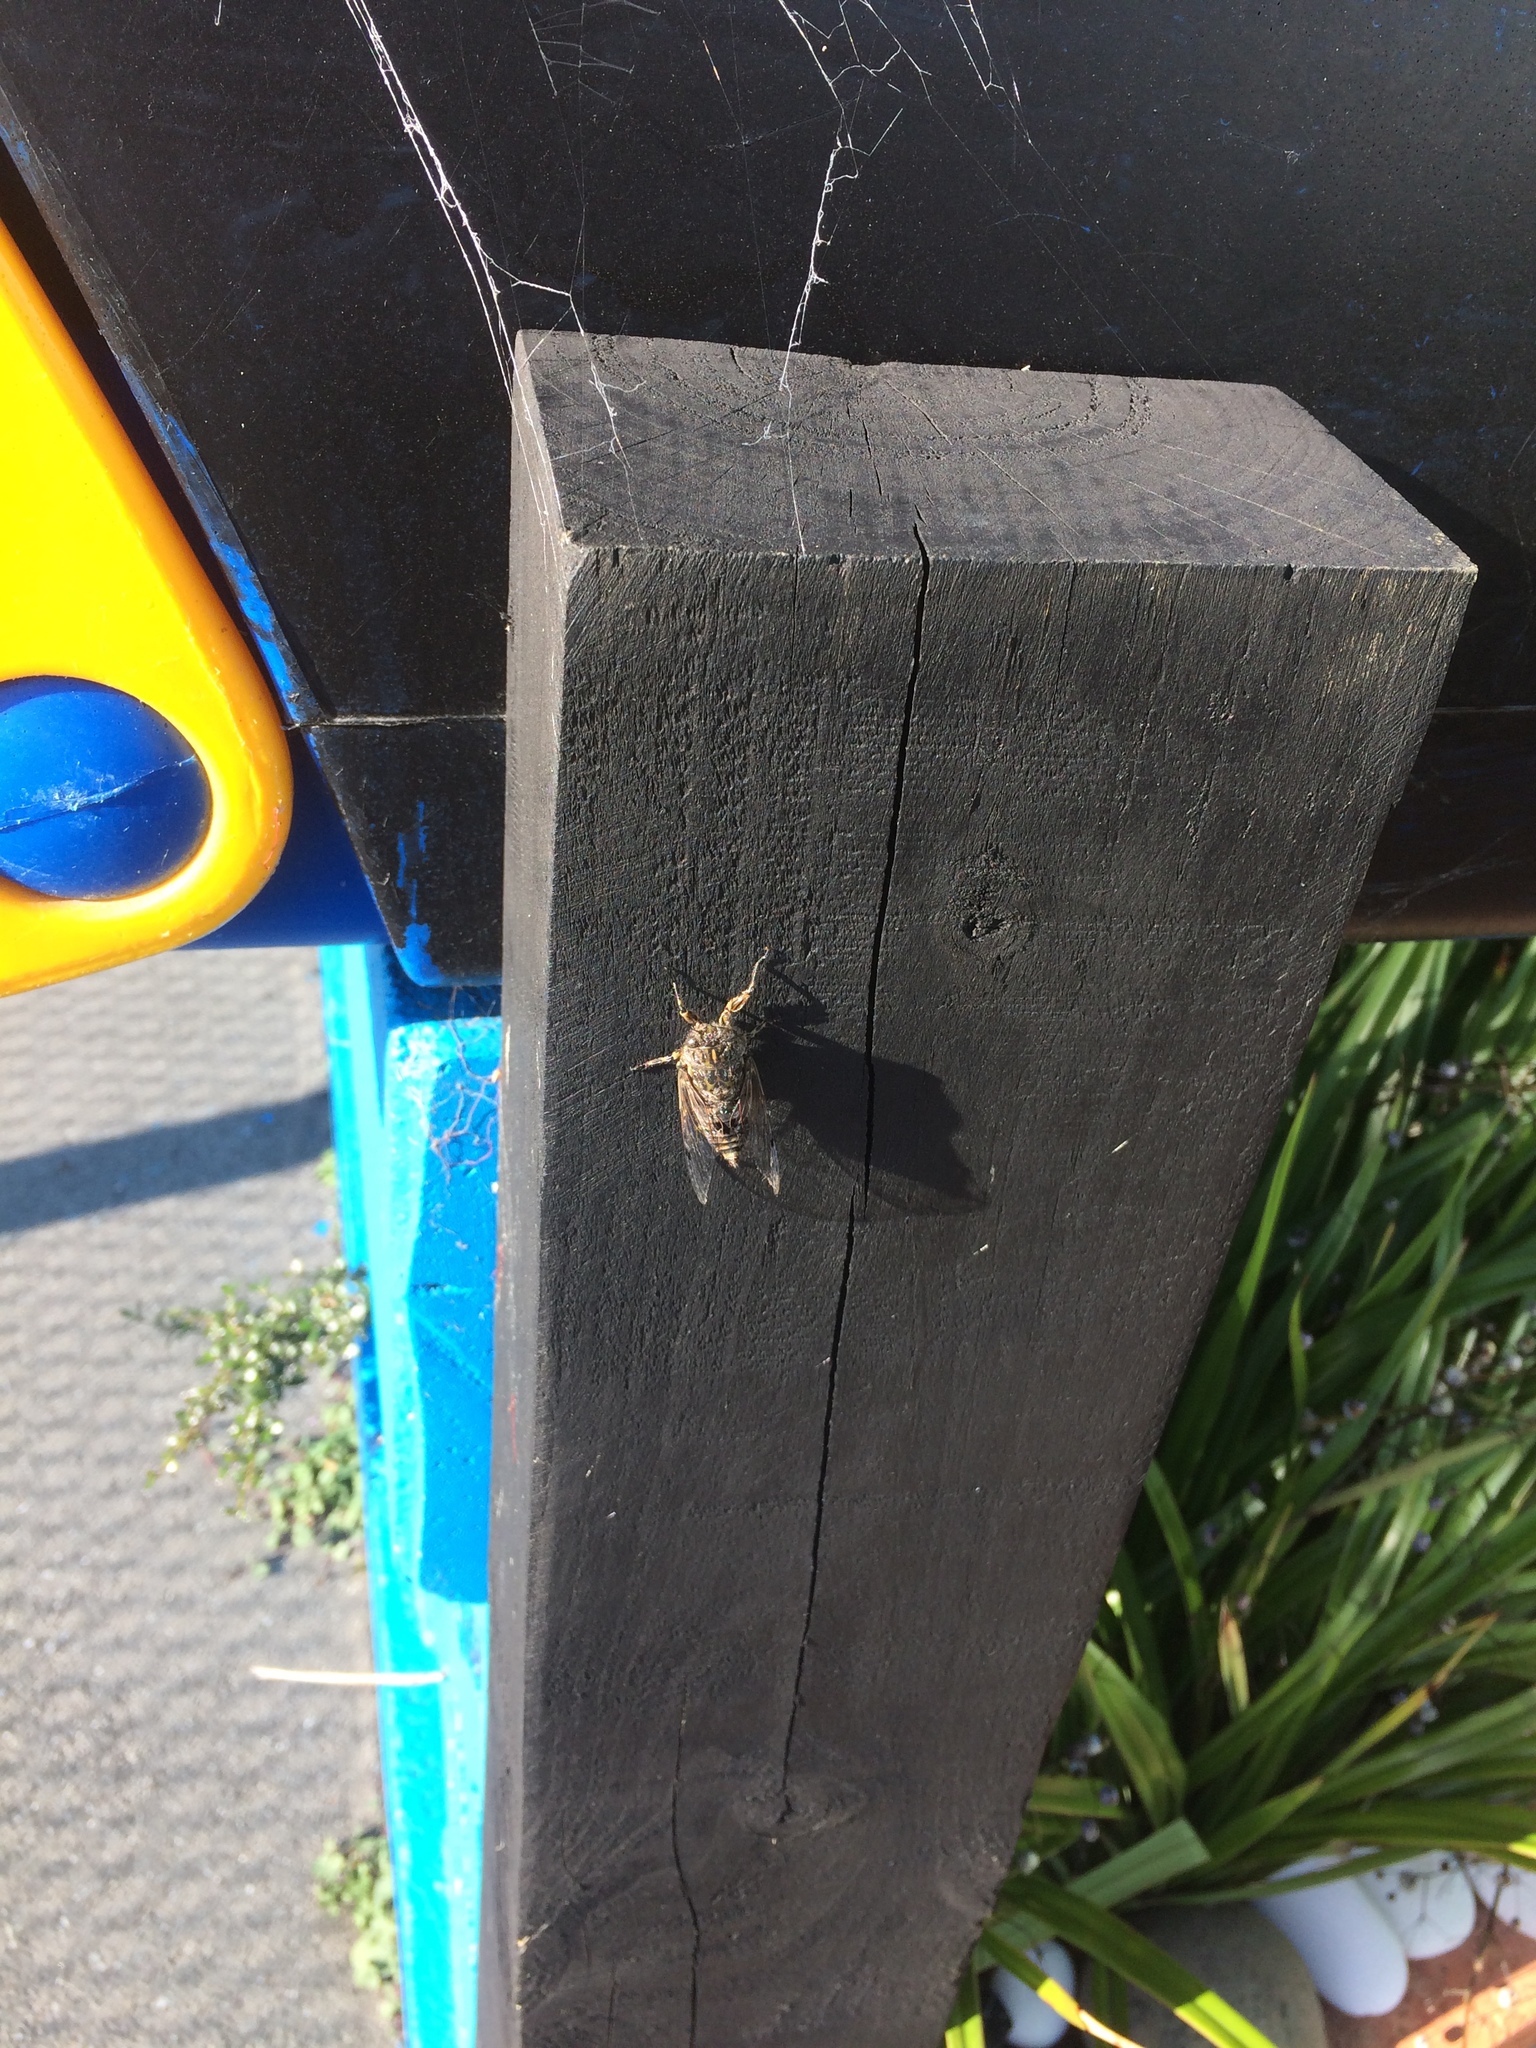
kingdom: Animalia
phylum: Arthropoda
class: Insecta
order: Hemiptera
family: Cicadidae
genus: Amphipsalta
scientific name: Amphipsalta zelandica
